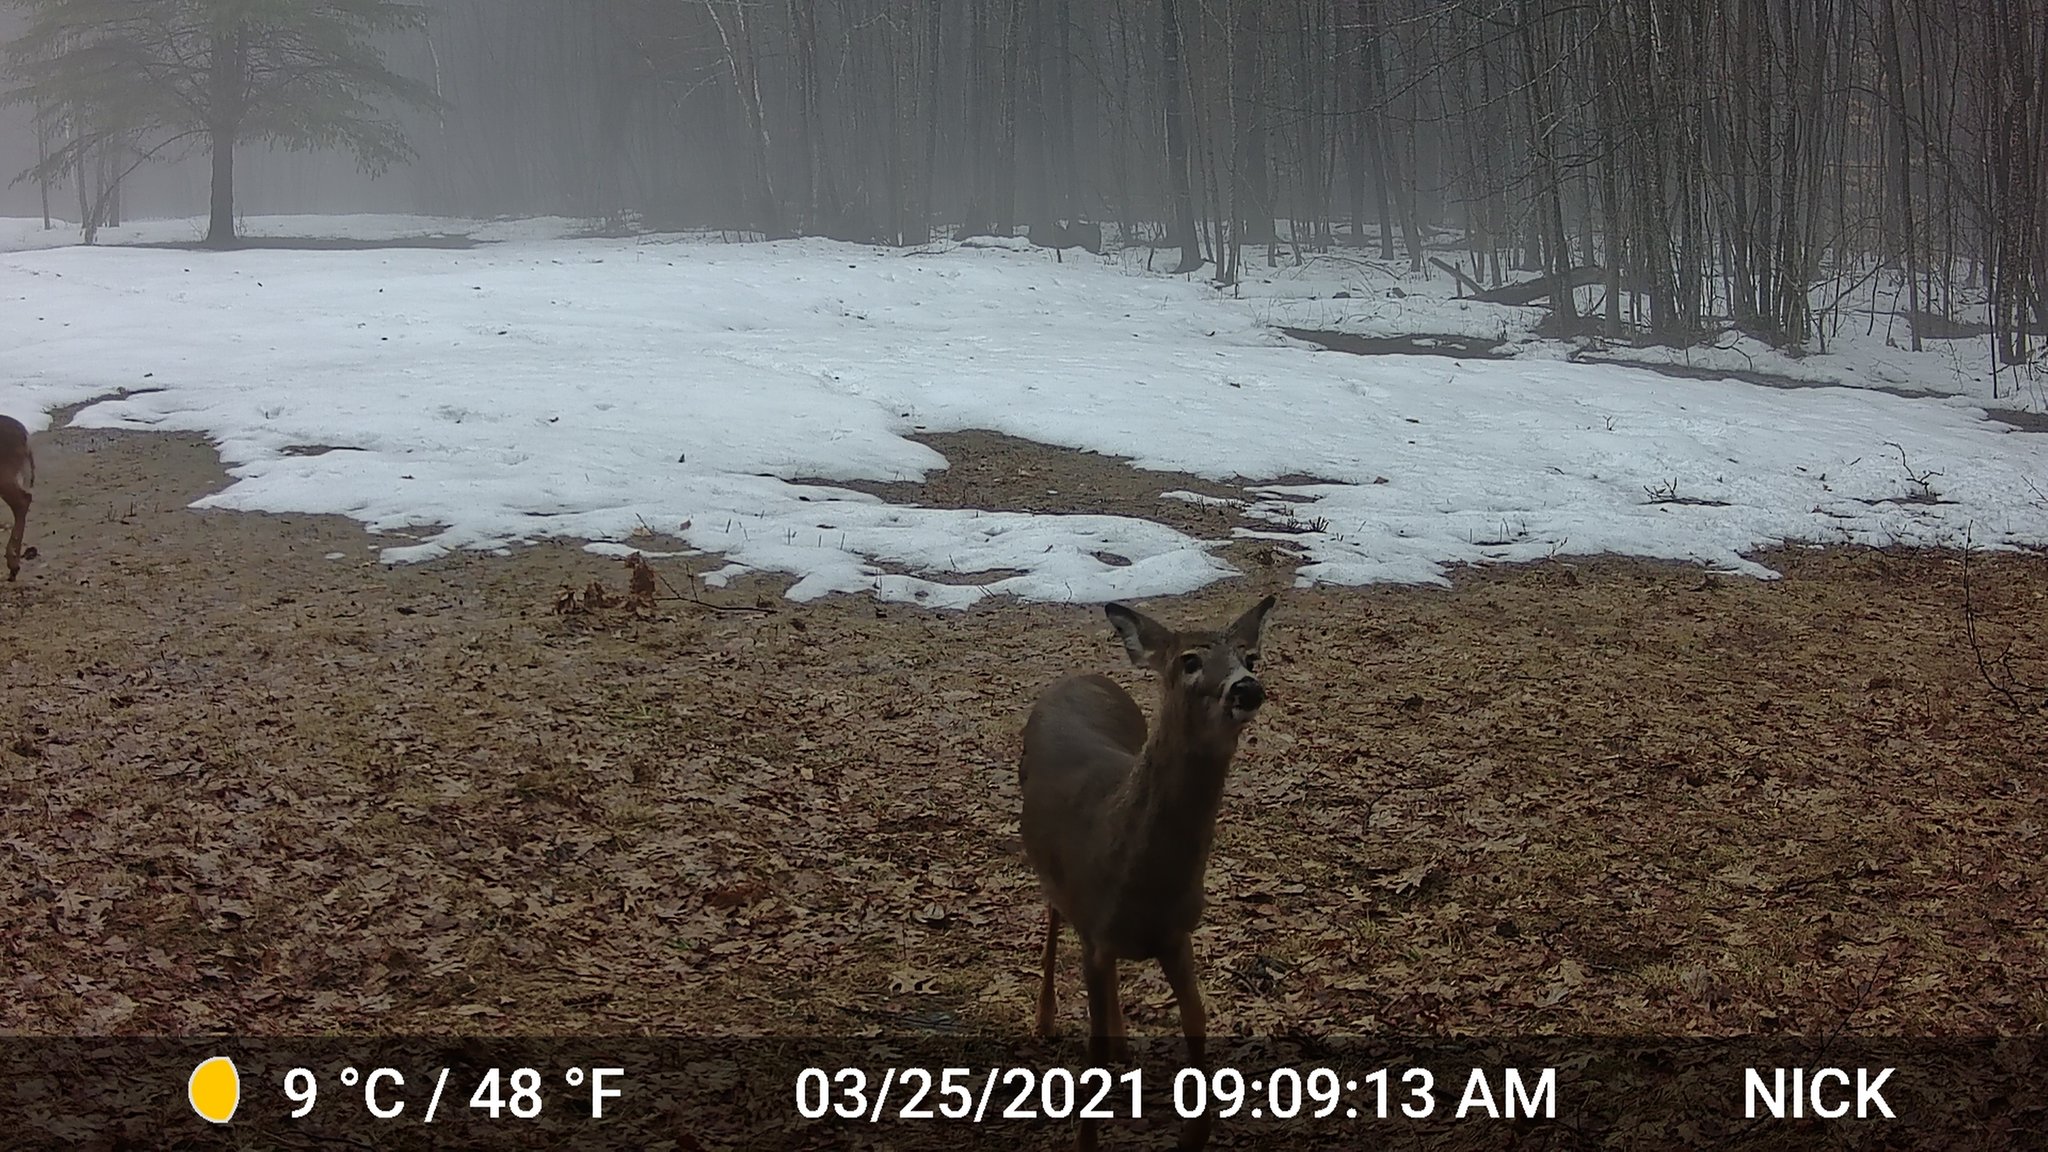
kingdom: Animalia
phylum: Chordata
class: Mammalia
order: Artiodactyla
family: Cervidae
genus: Odocoileus
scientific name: Odocoileus virginianus
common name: White-tailed deer
